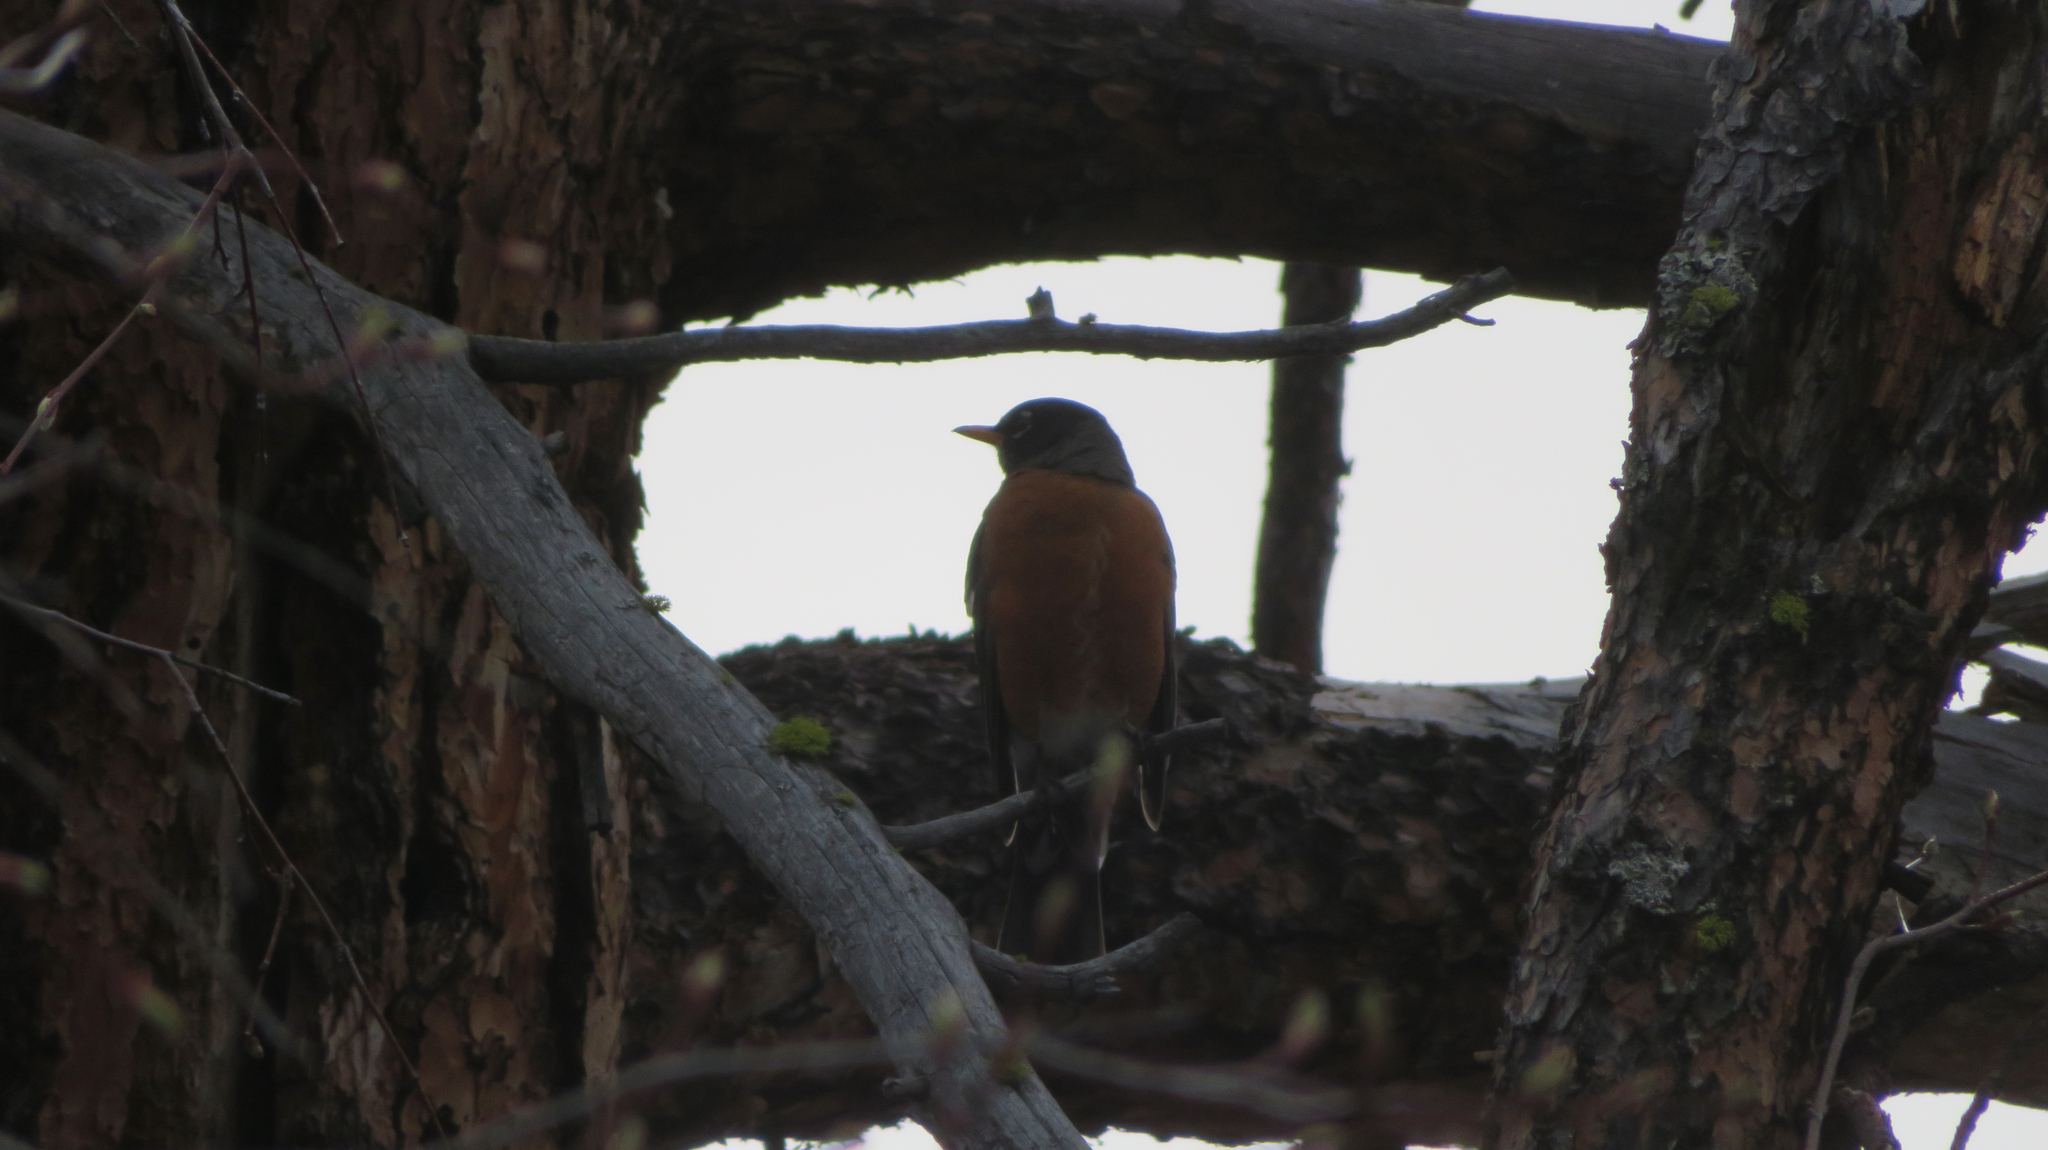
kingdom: Animalia
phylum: Chordata
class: Aves
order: Passeriformes
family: Turdidae
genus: Turdus
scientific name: Turdus migratorius
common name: American robin
